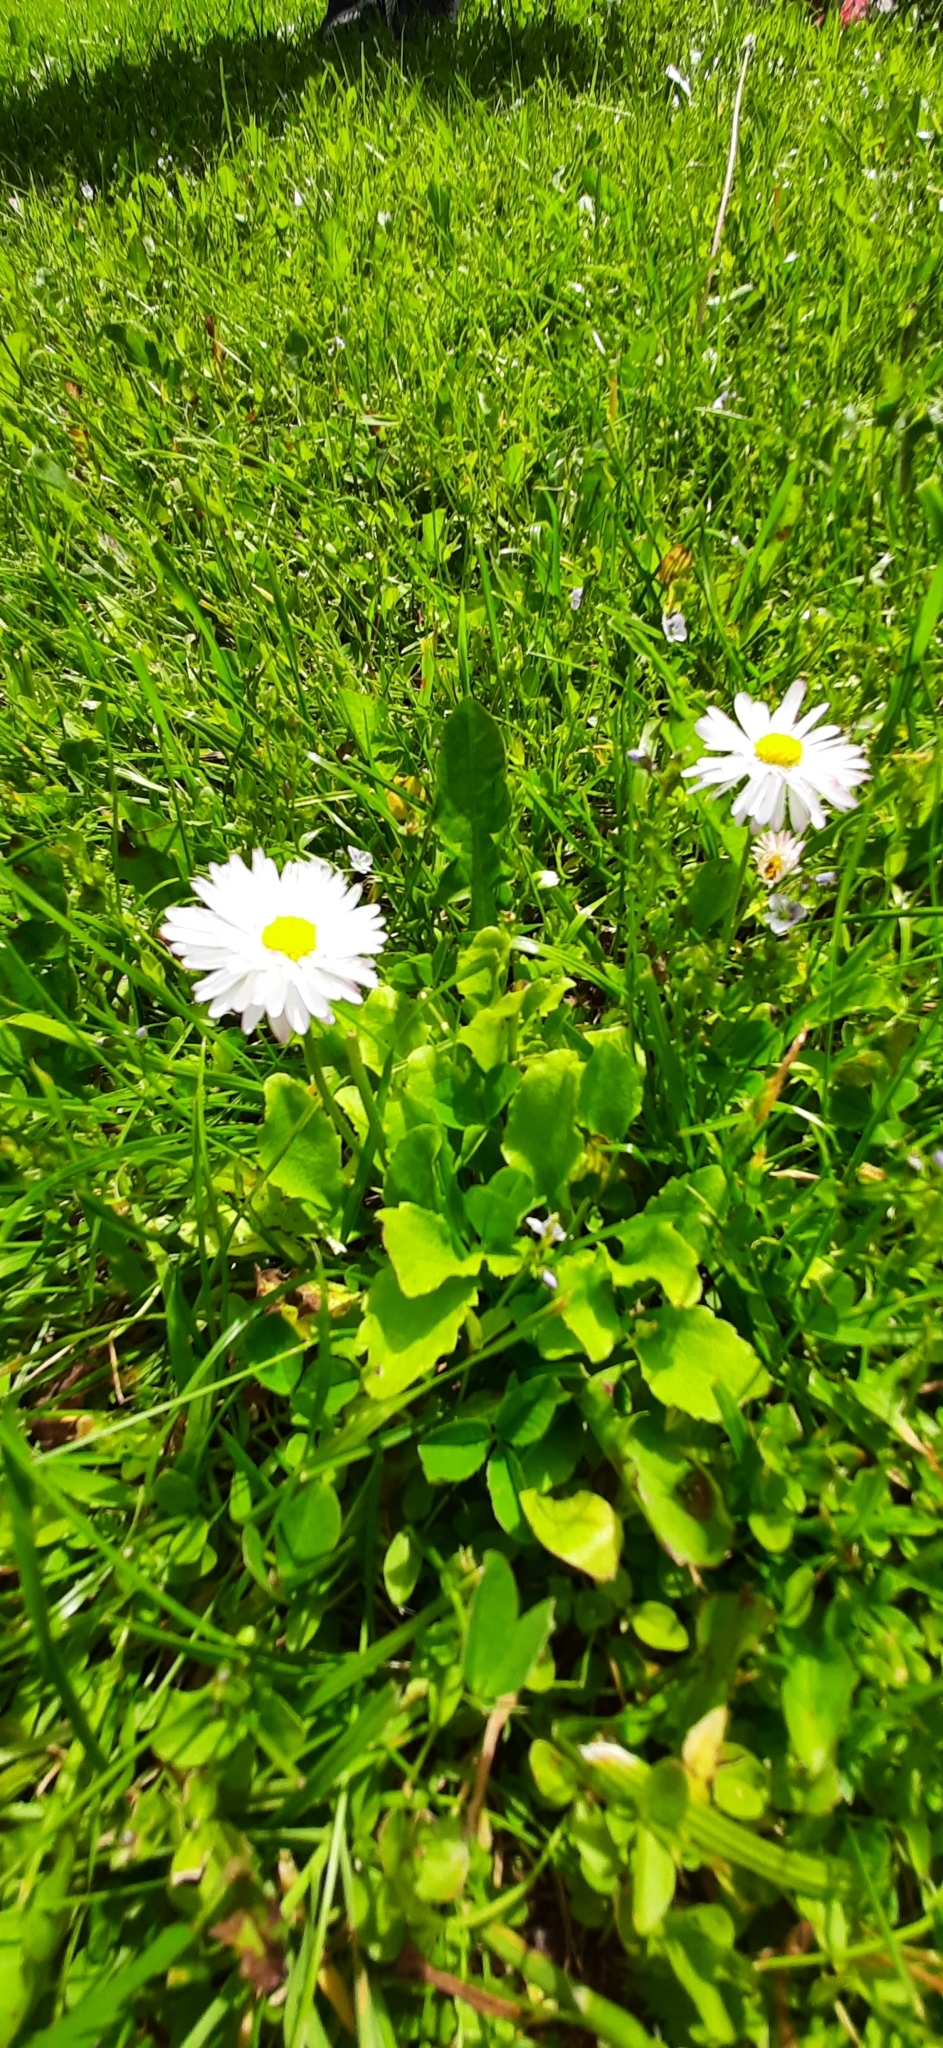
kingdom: Plantae
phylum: Tracheophyta
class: Magnoliopsida
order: Asterales
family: Asteraceae
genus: Bellis
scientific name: Bellis perennis
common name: Lawndaisy
